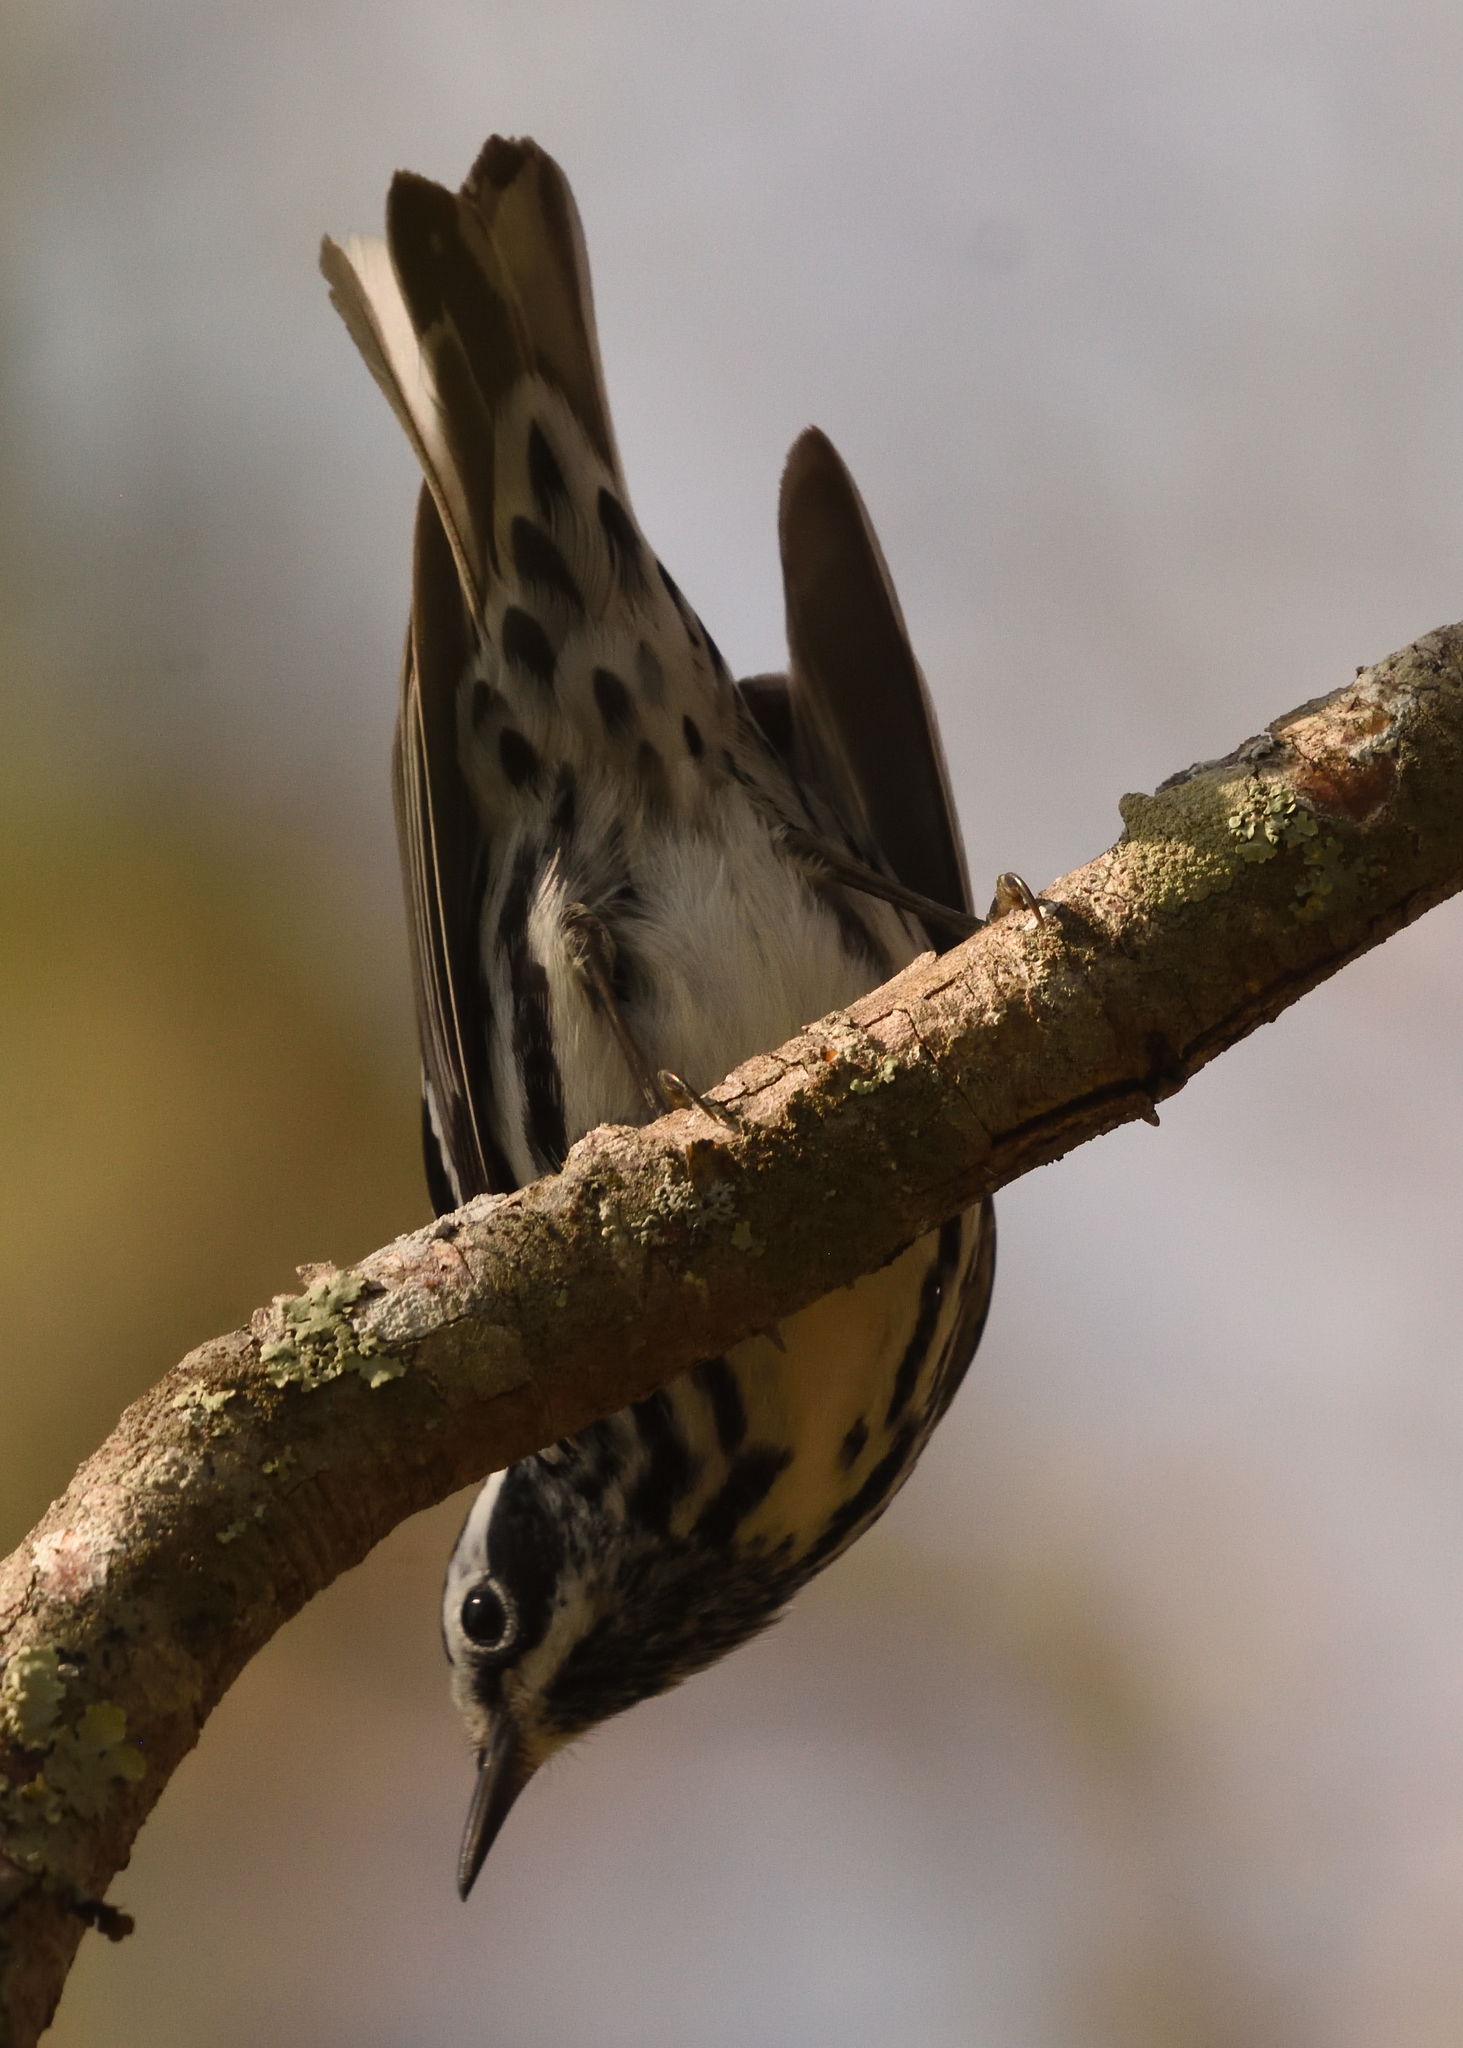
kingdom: Animalia
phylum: Chordata
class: Aves
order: Passeriformes
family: Parulidae
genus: Mniotilta
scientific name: Mniotilta varia
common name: Black-and-white warbler
